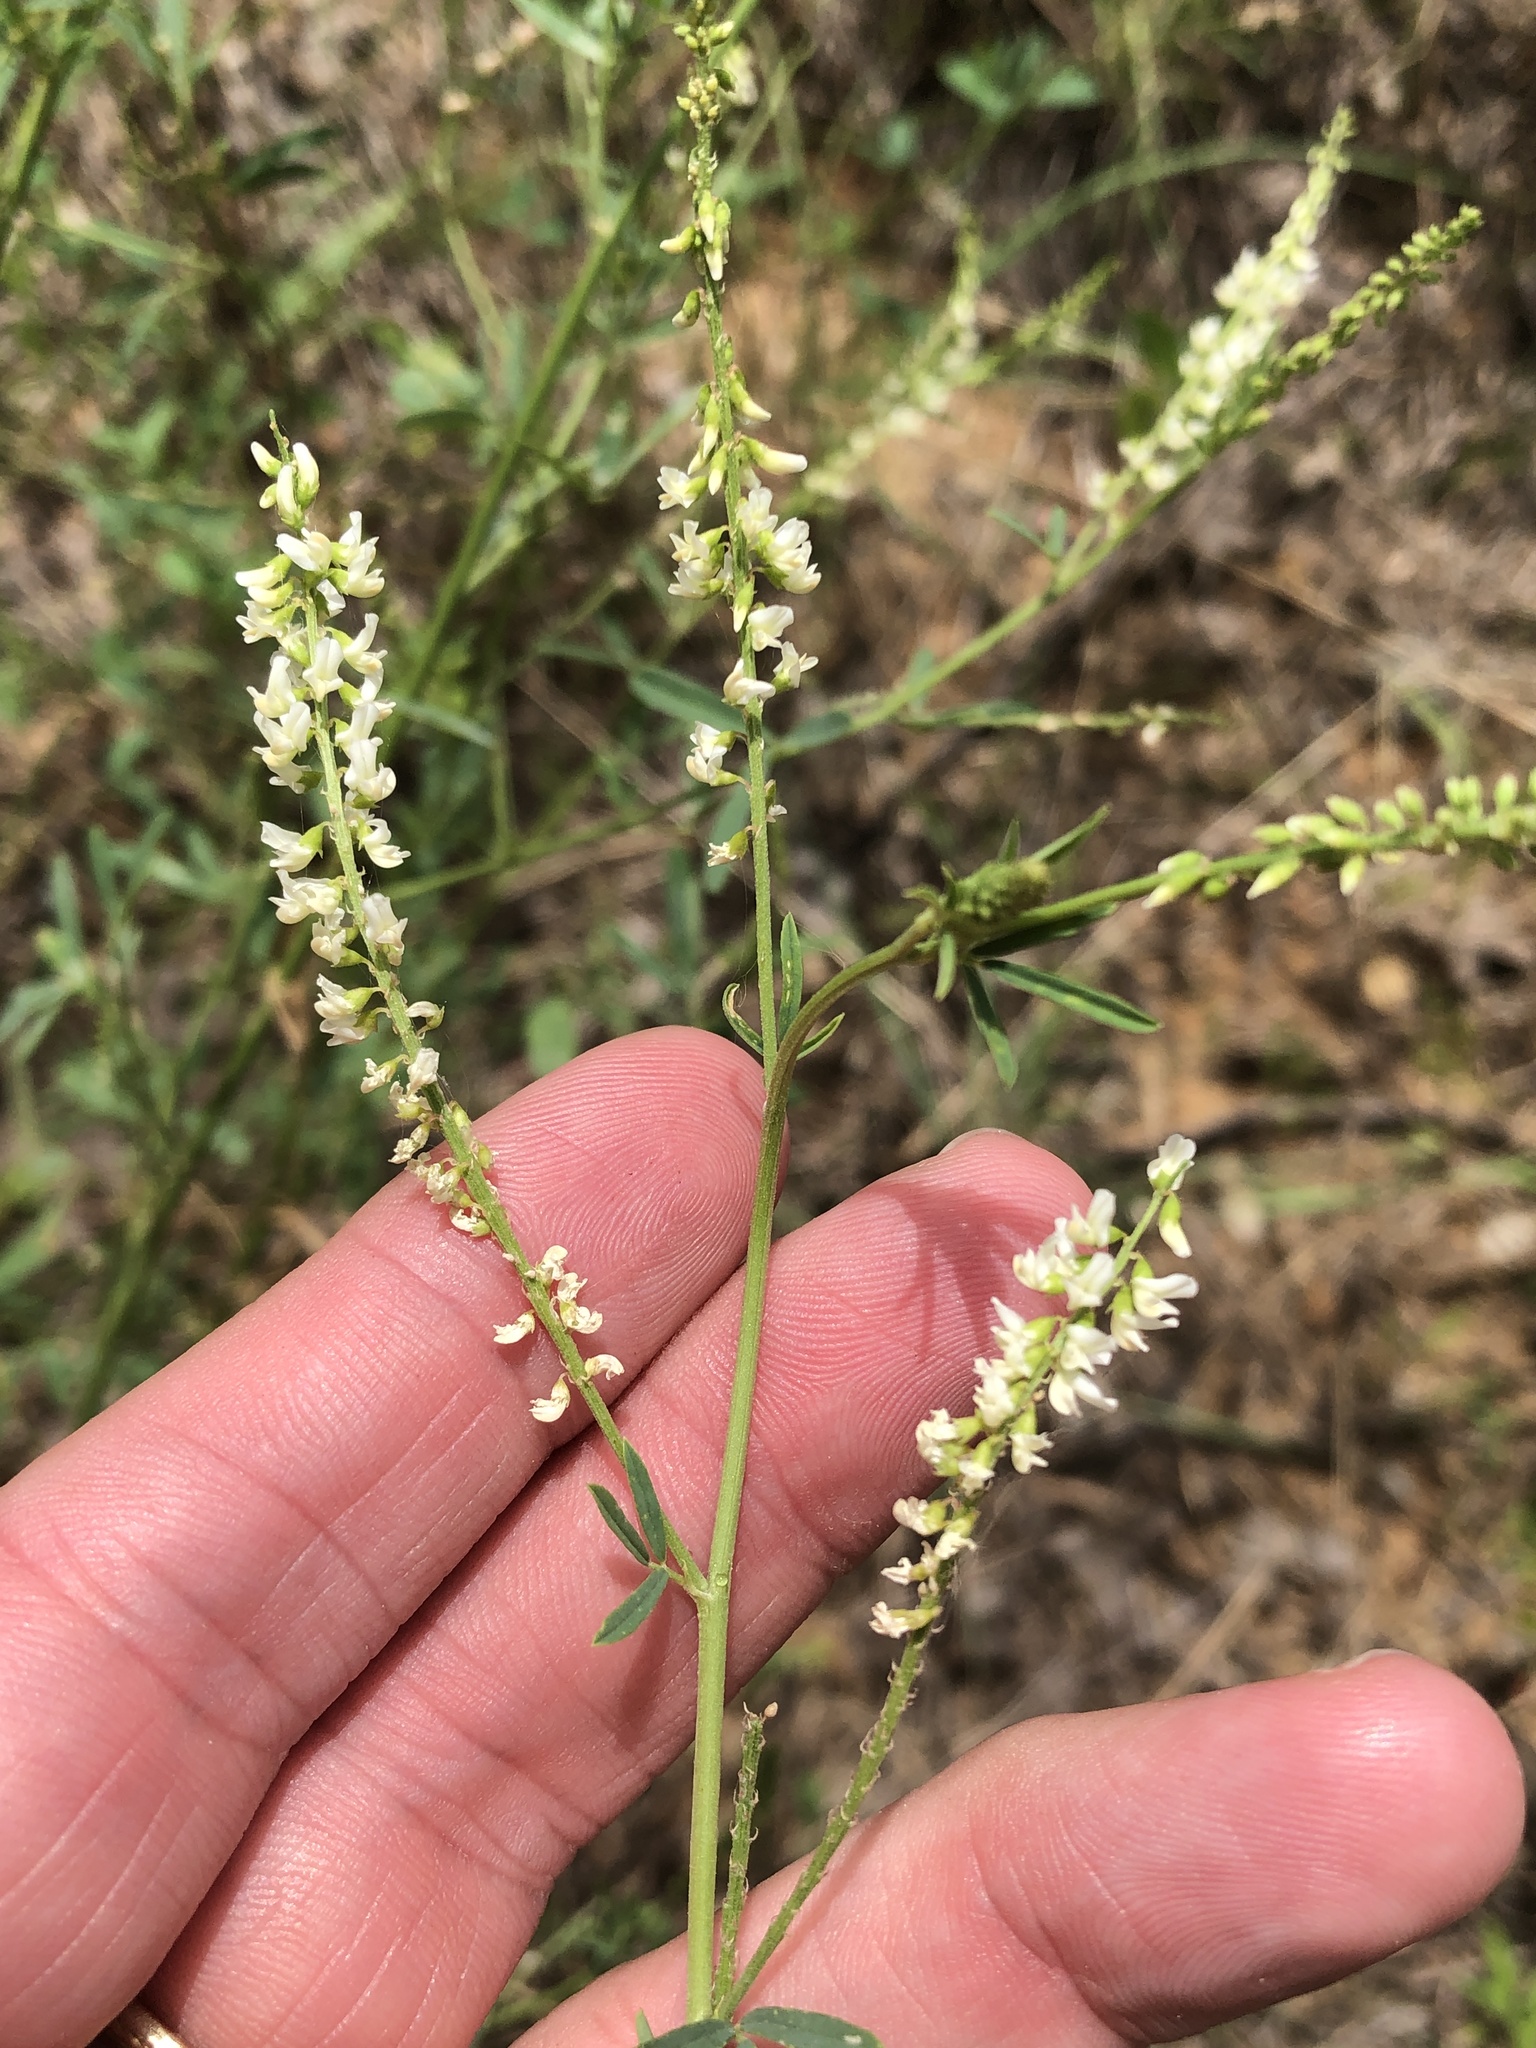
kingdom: Plantae
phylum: Tracheophyta
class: Magnoliopsida
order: Fabales
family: Fabaceae
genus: Melilotus
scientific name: Melilotus albus
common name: White melilot
